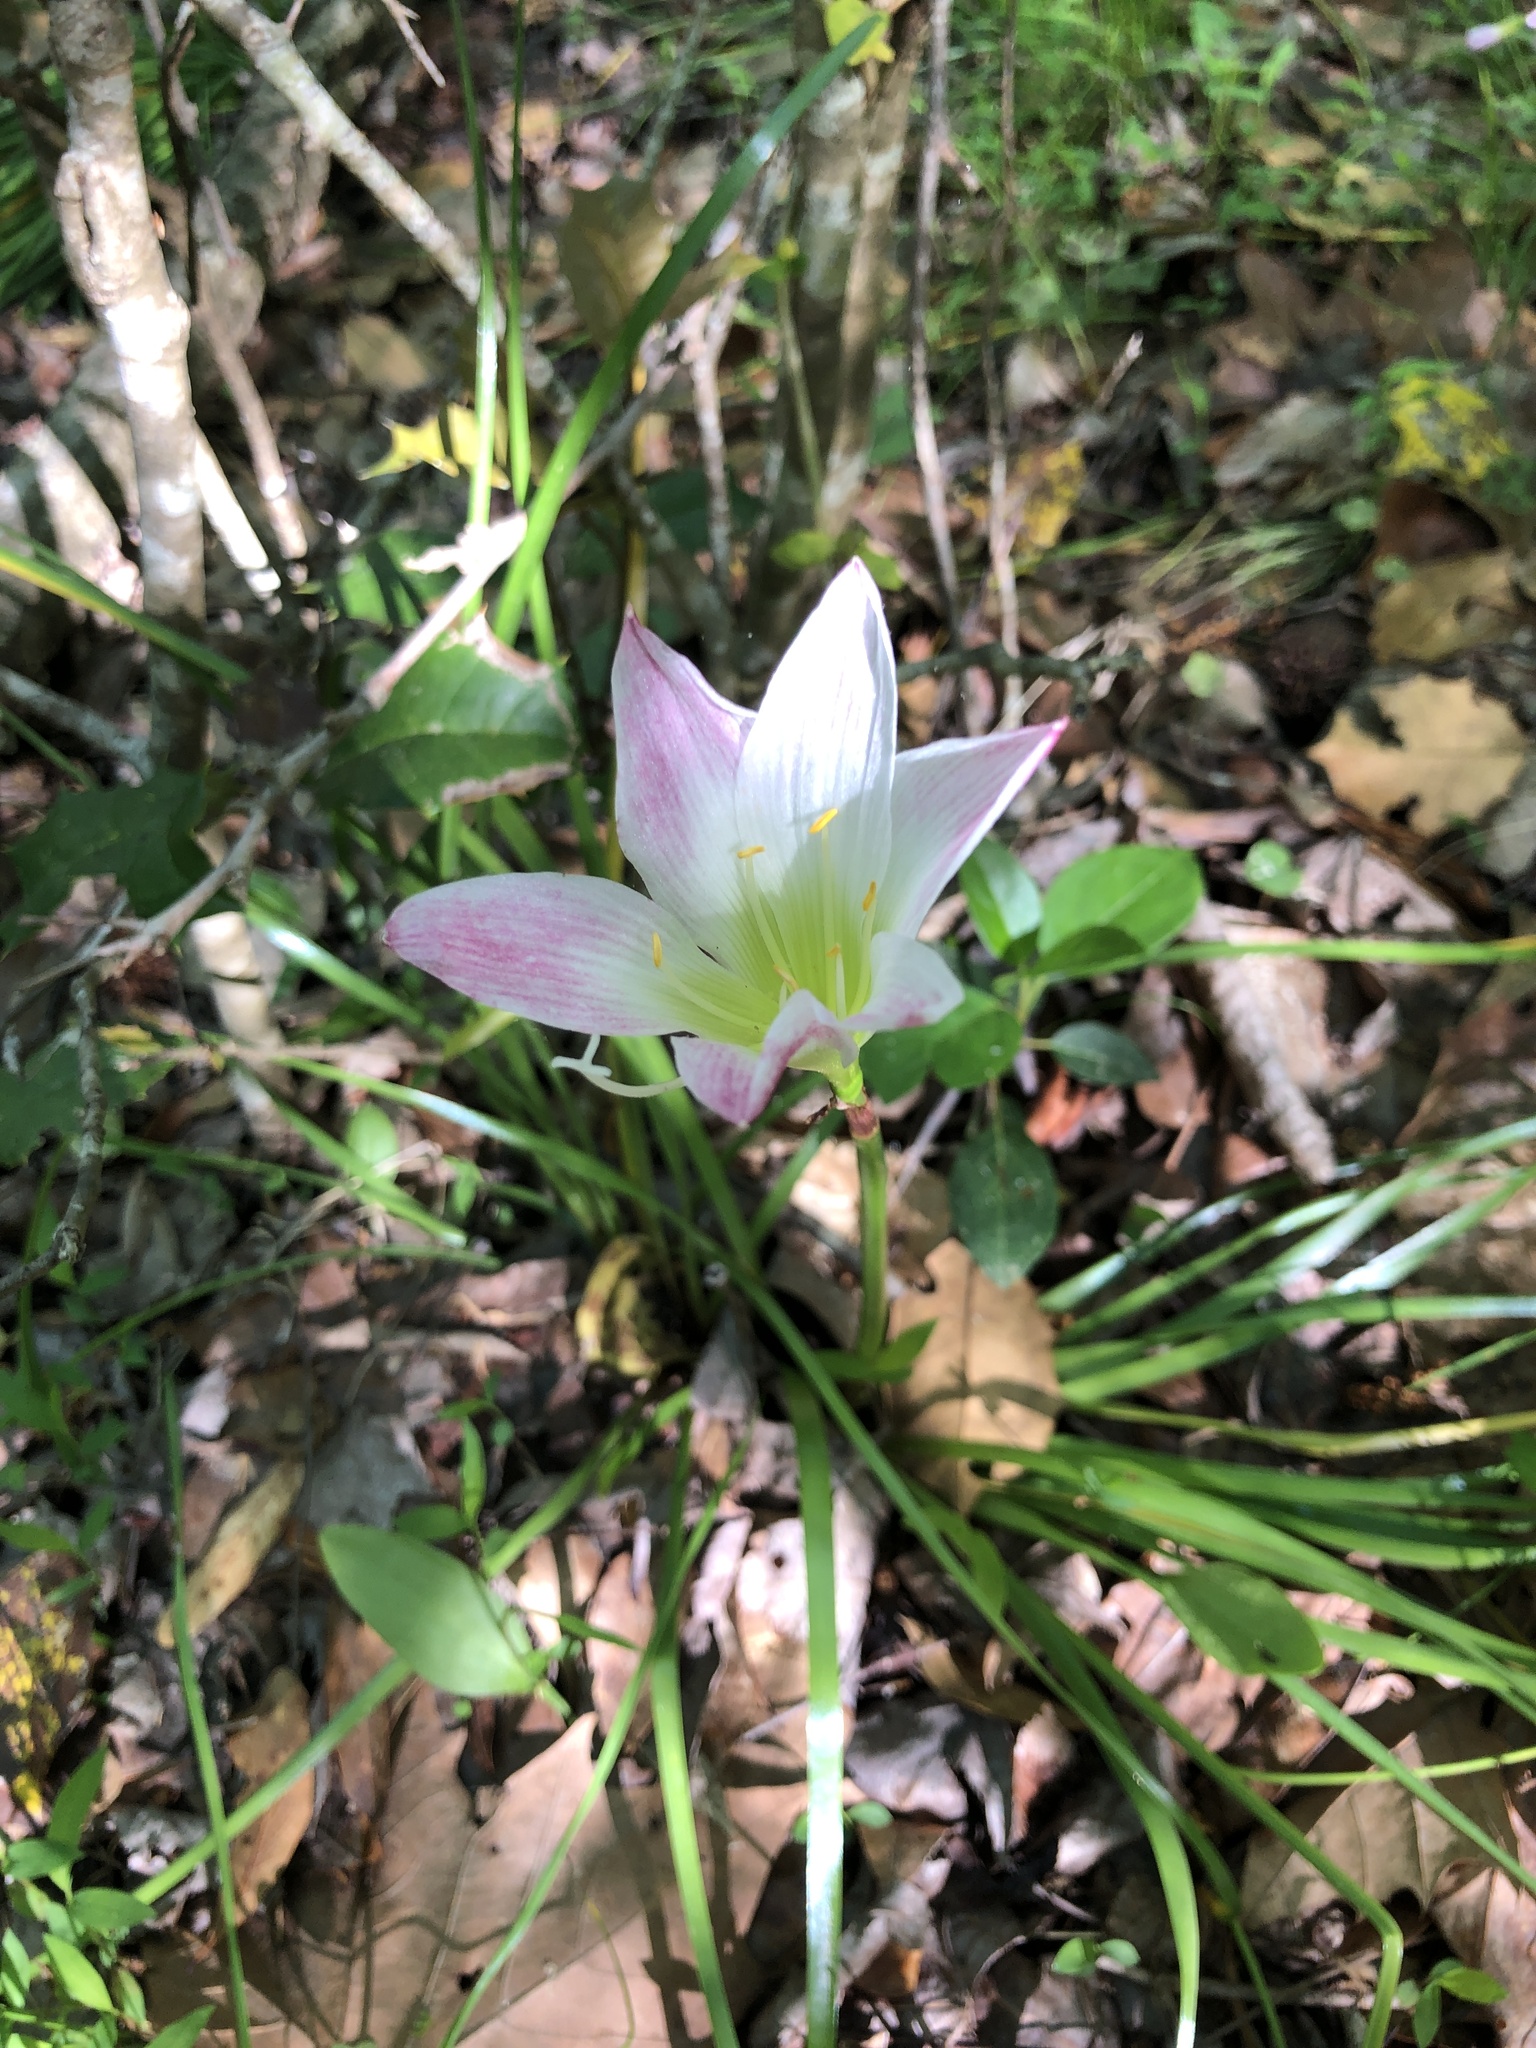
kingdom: Plantae
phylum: Tracheophyta
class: Liliopsida
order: Asparagales
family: Amaryllidaceae
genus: Zephyranthes
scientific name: Zephyranthes atamasco
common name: Atamasco lily
